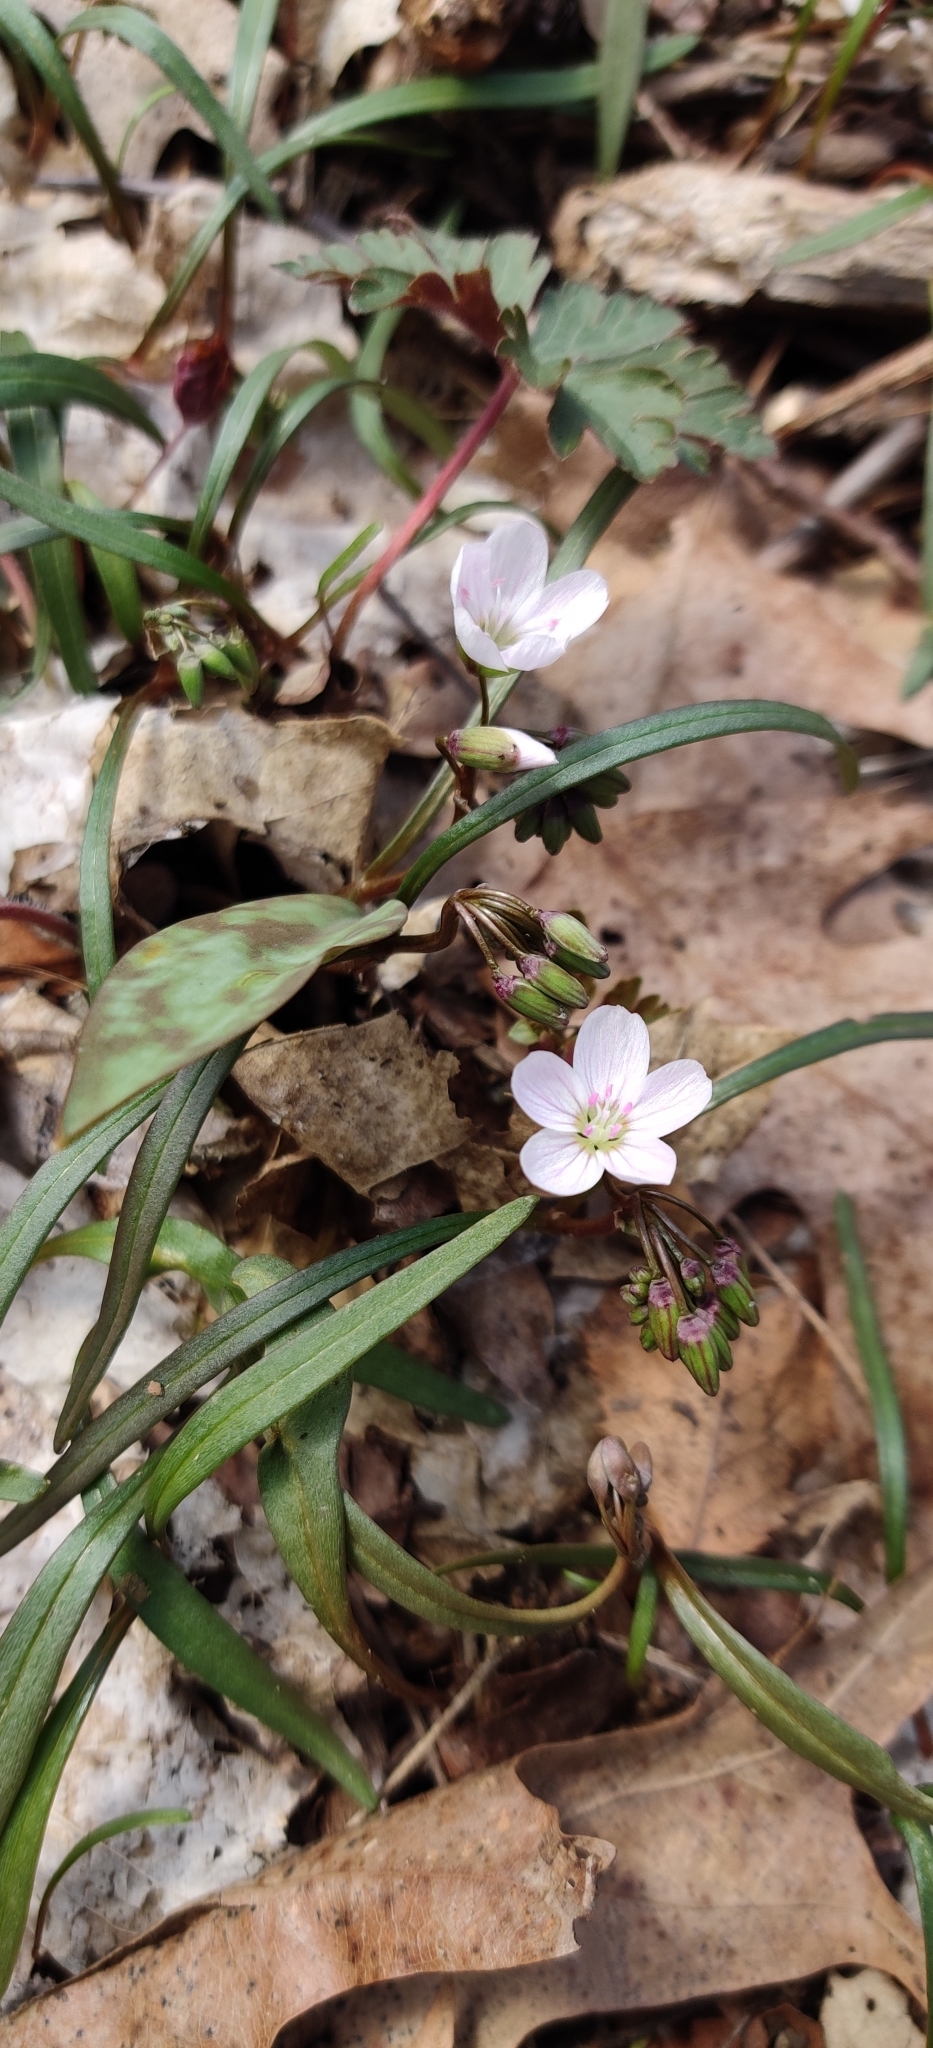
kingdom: Plantae
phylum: Tracheophyta
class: Magnoliopsida
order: Caryophyllales
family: Montiaceae
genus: Claytonia
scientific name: Claytonia virginica
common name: Virginia springbeauty
